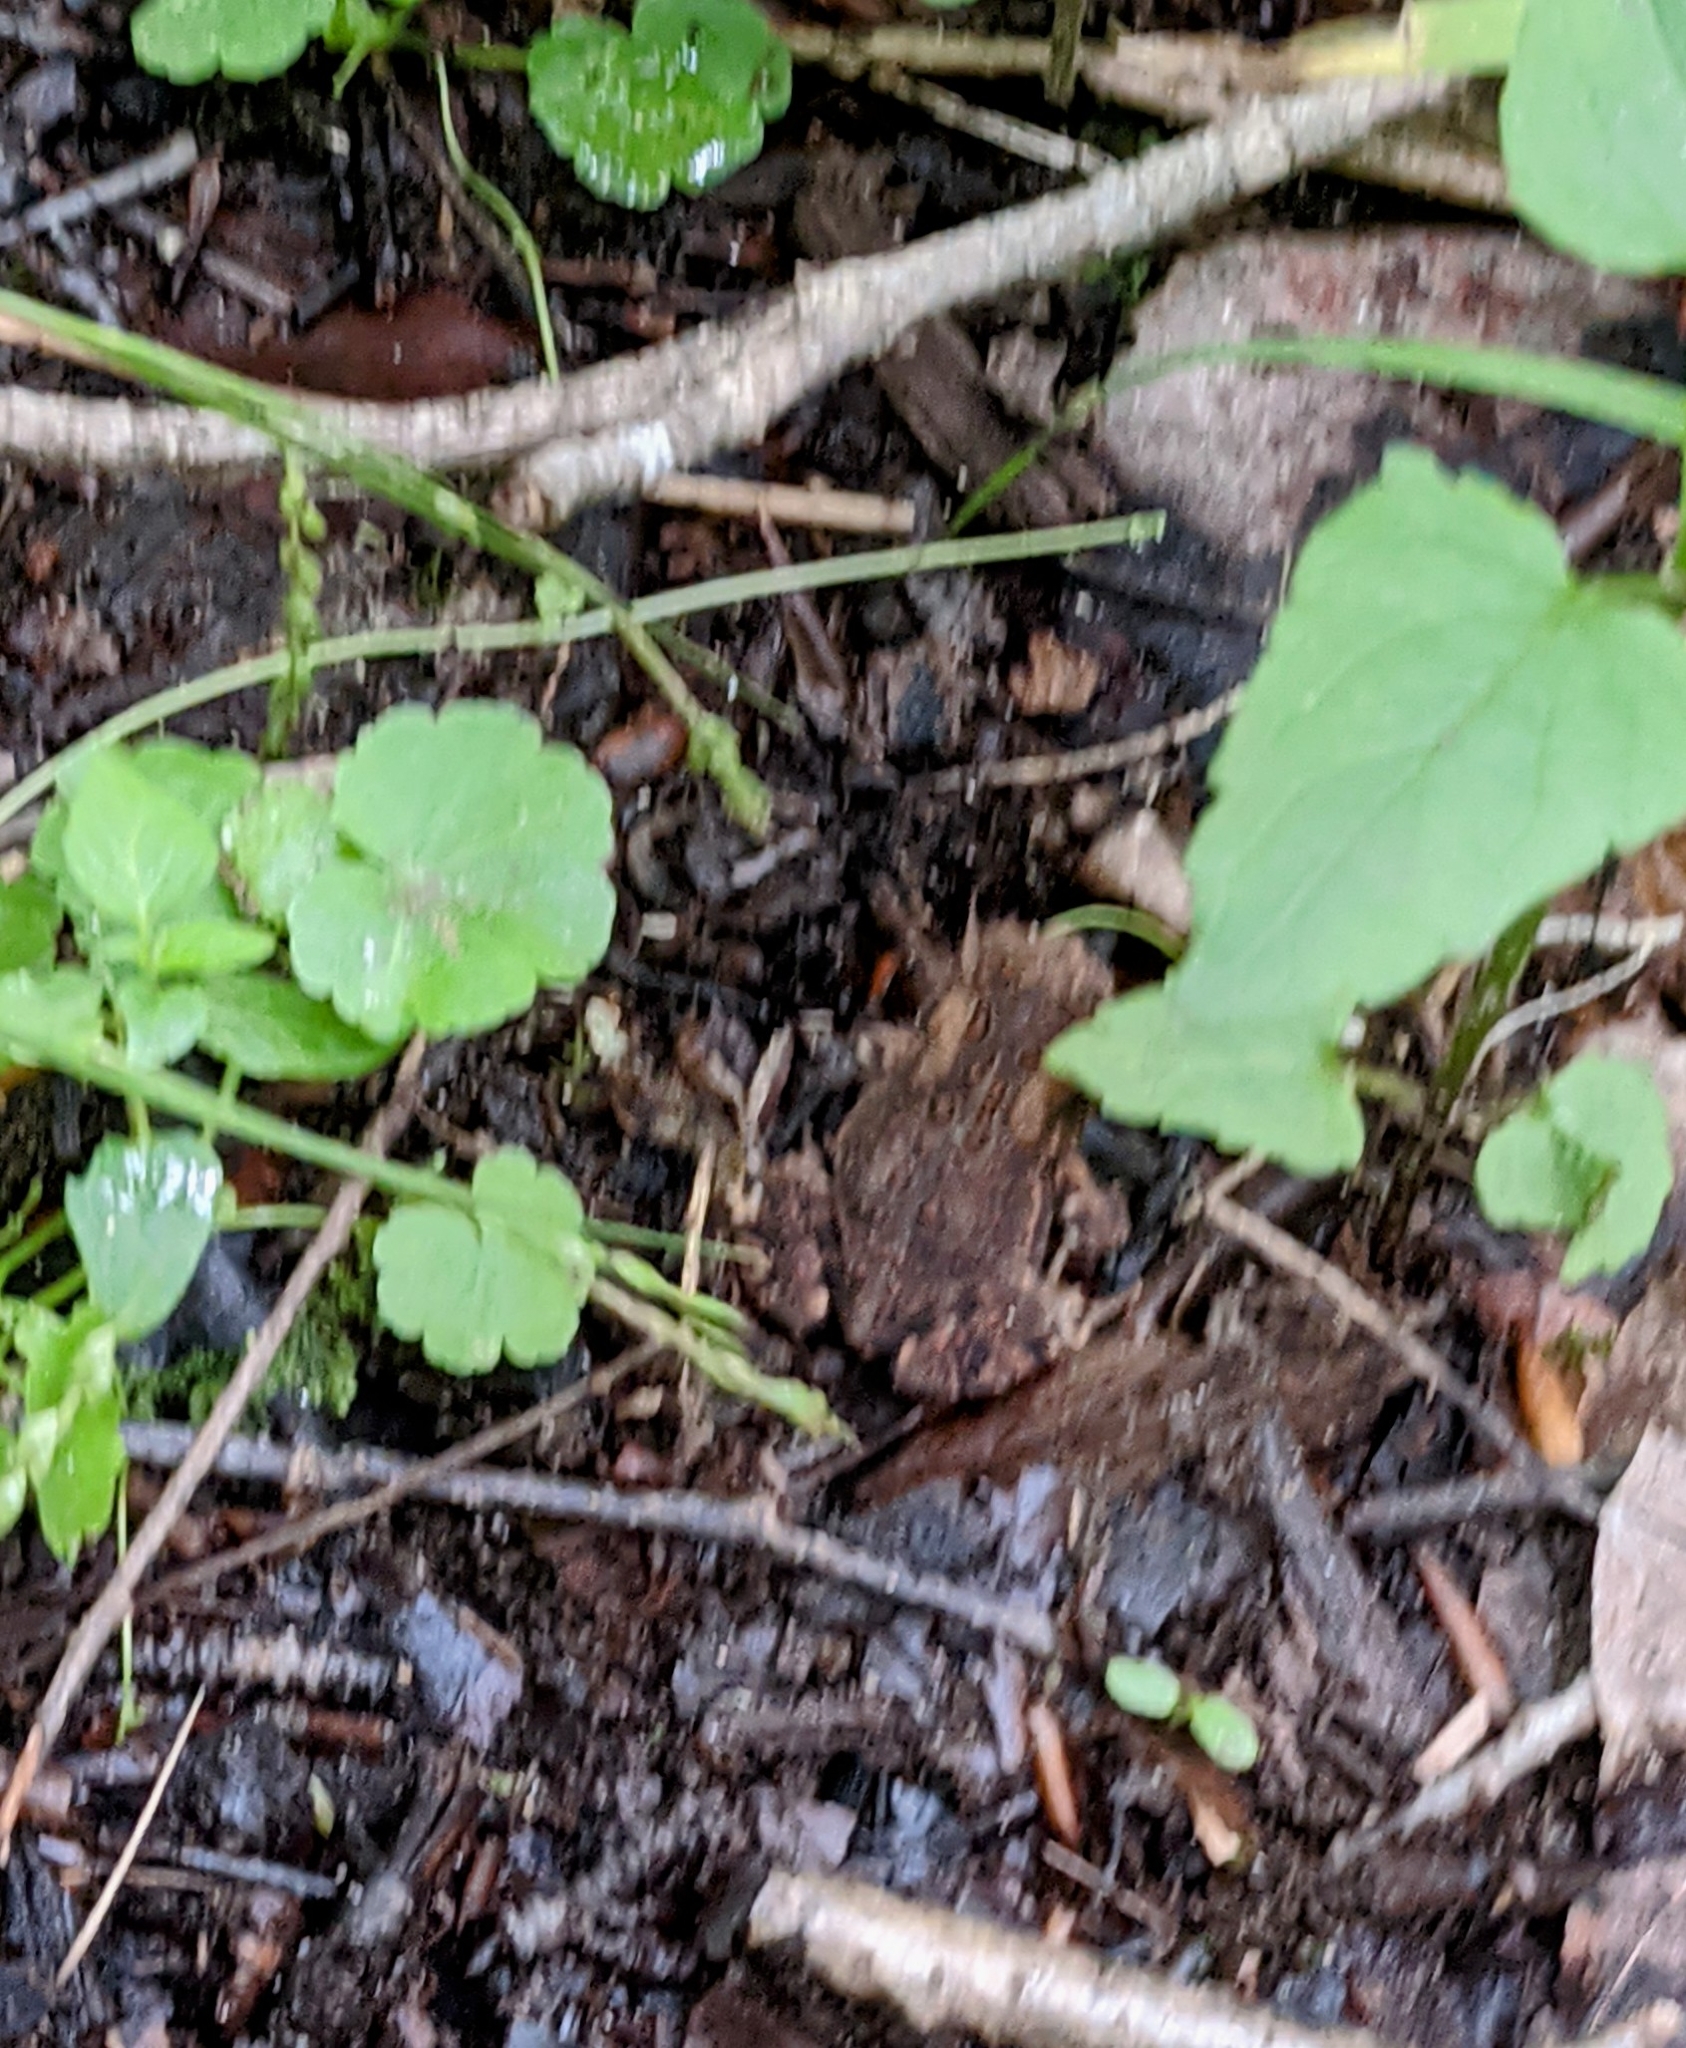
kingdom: Animalia
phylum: Chordata
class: Amphibia
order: Anura
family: Bufonidae
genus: Anaxyrus
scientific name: Anaxyrus americanus
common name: American toad
